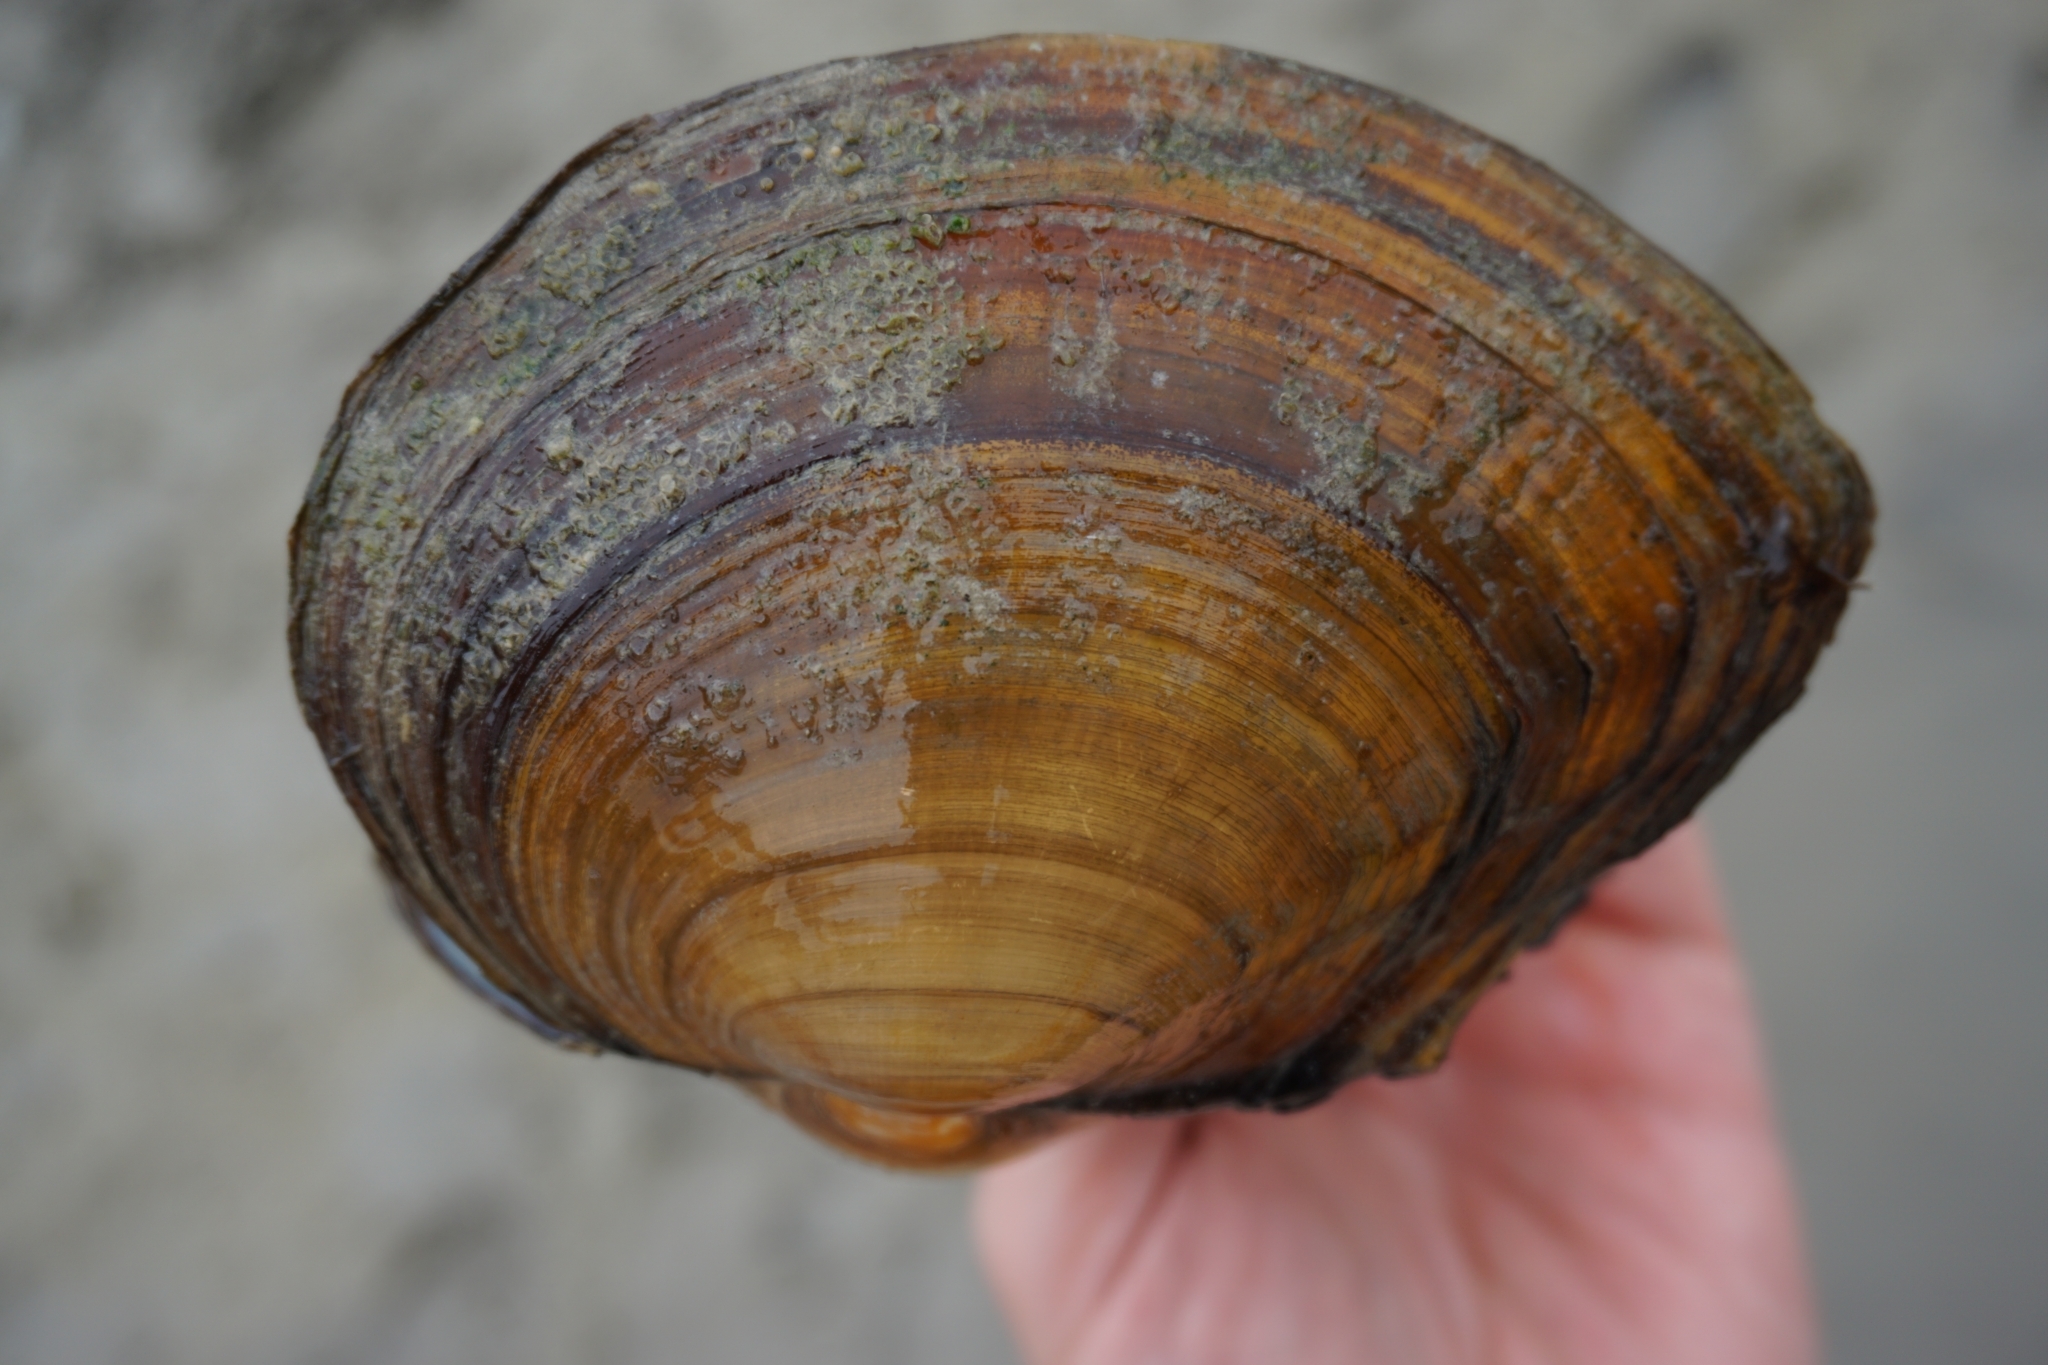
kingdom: Animalia
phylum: Mollusca
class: Bivalvia
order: Unionida
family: Unionidae
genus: Sinanodonta
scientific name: Sinanodonta woodiana
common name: Chinese pond mussel
